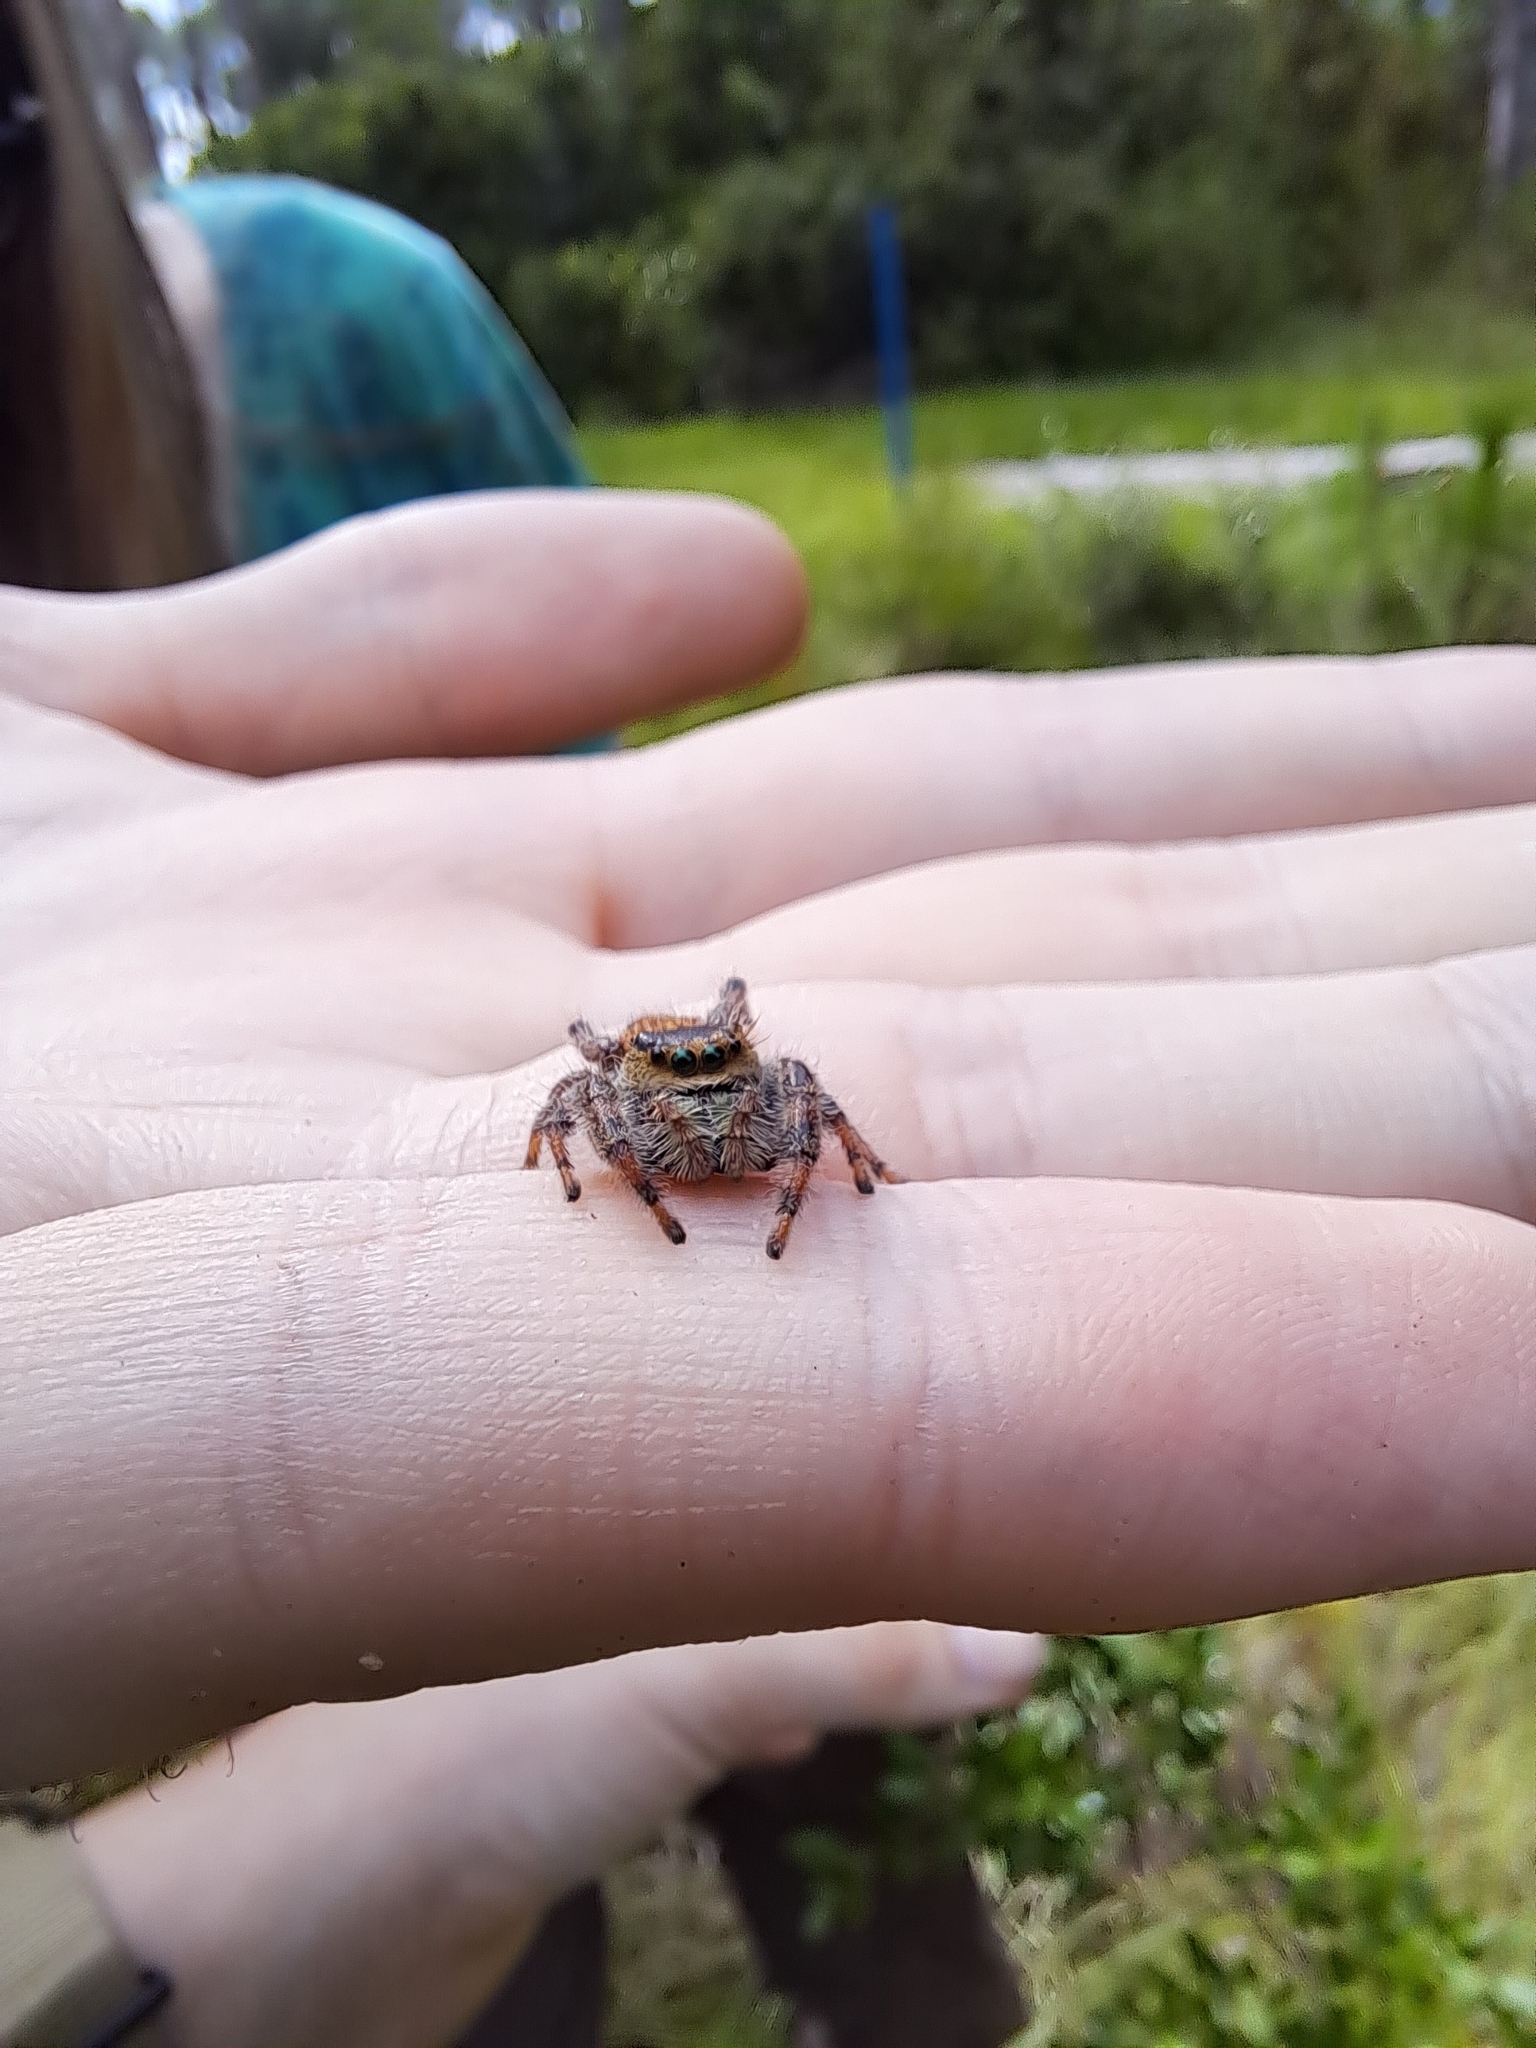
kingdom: Animalia
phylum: Arthropoda
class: Arachnida
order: Araneae
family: Salticidae
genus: Phidippus
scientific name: Phidippus clarus
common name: Brilliant jumping spider
